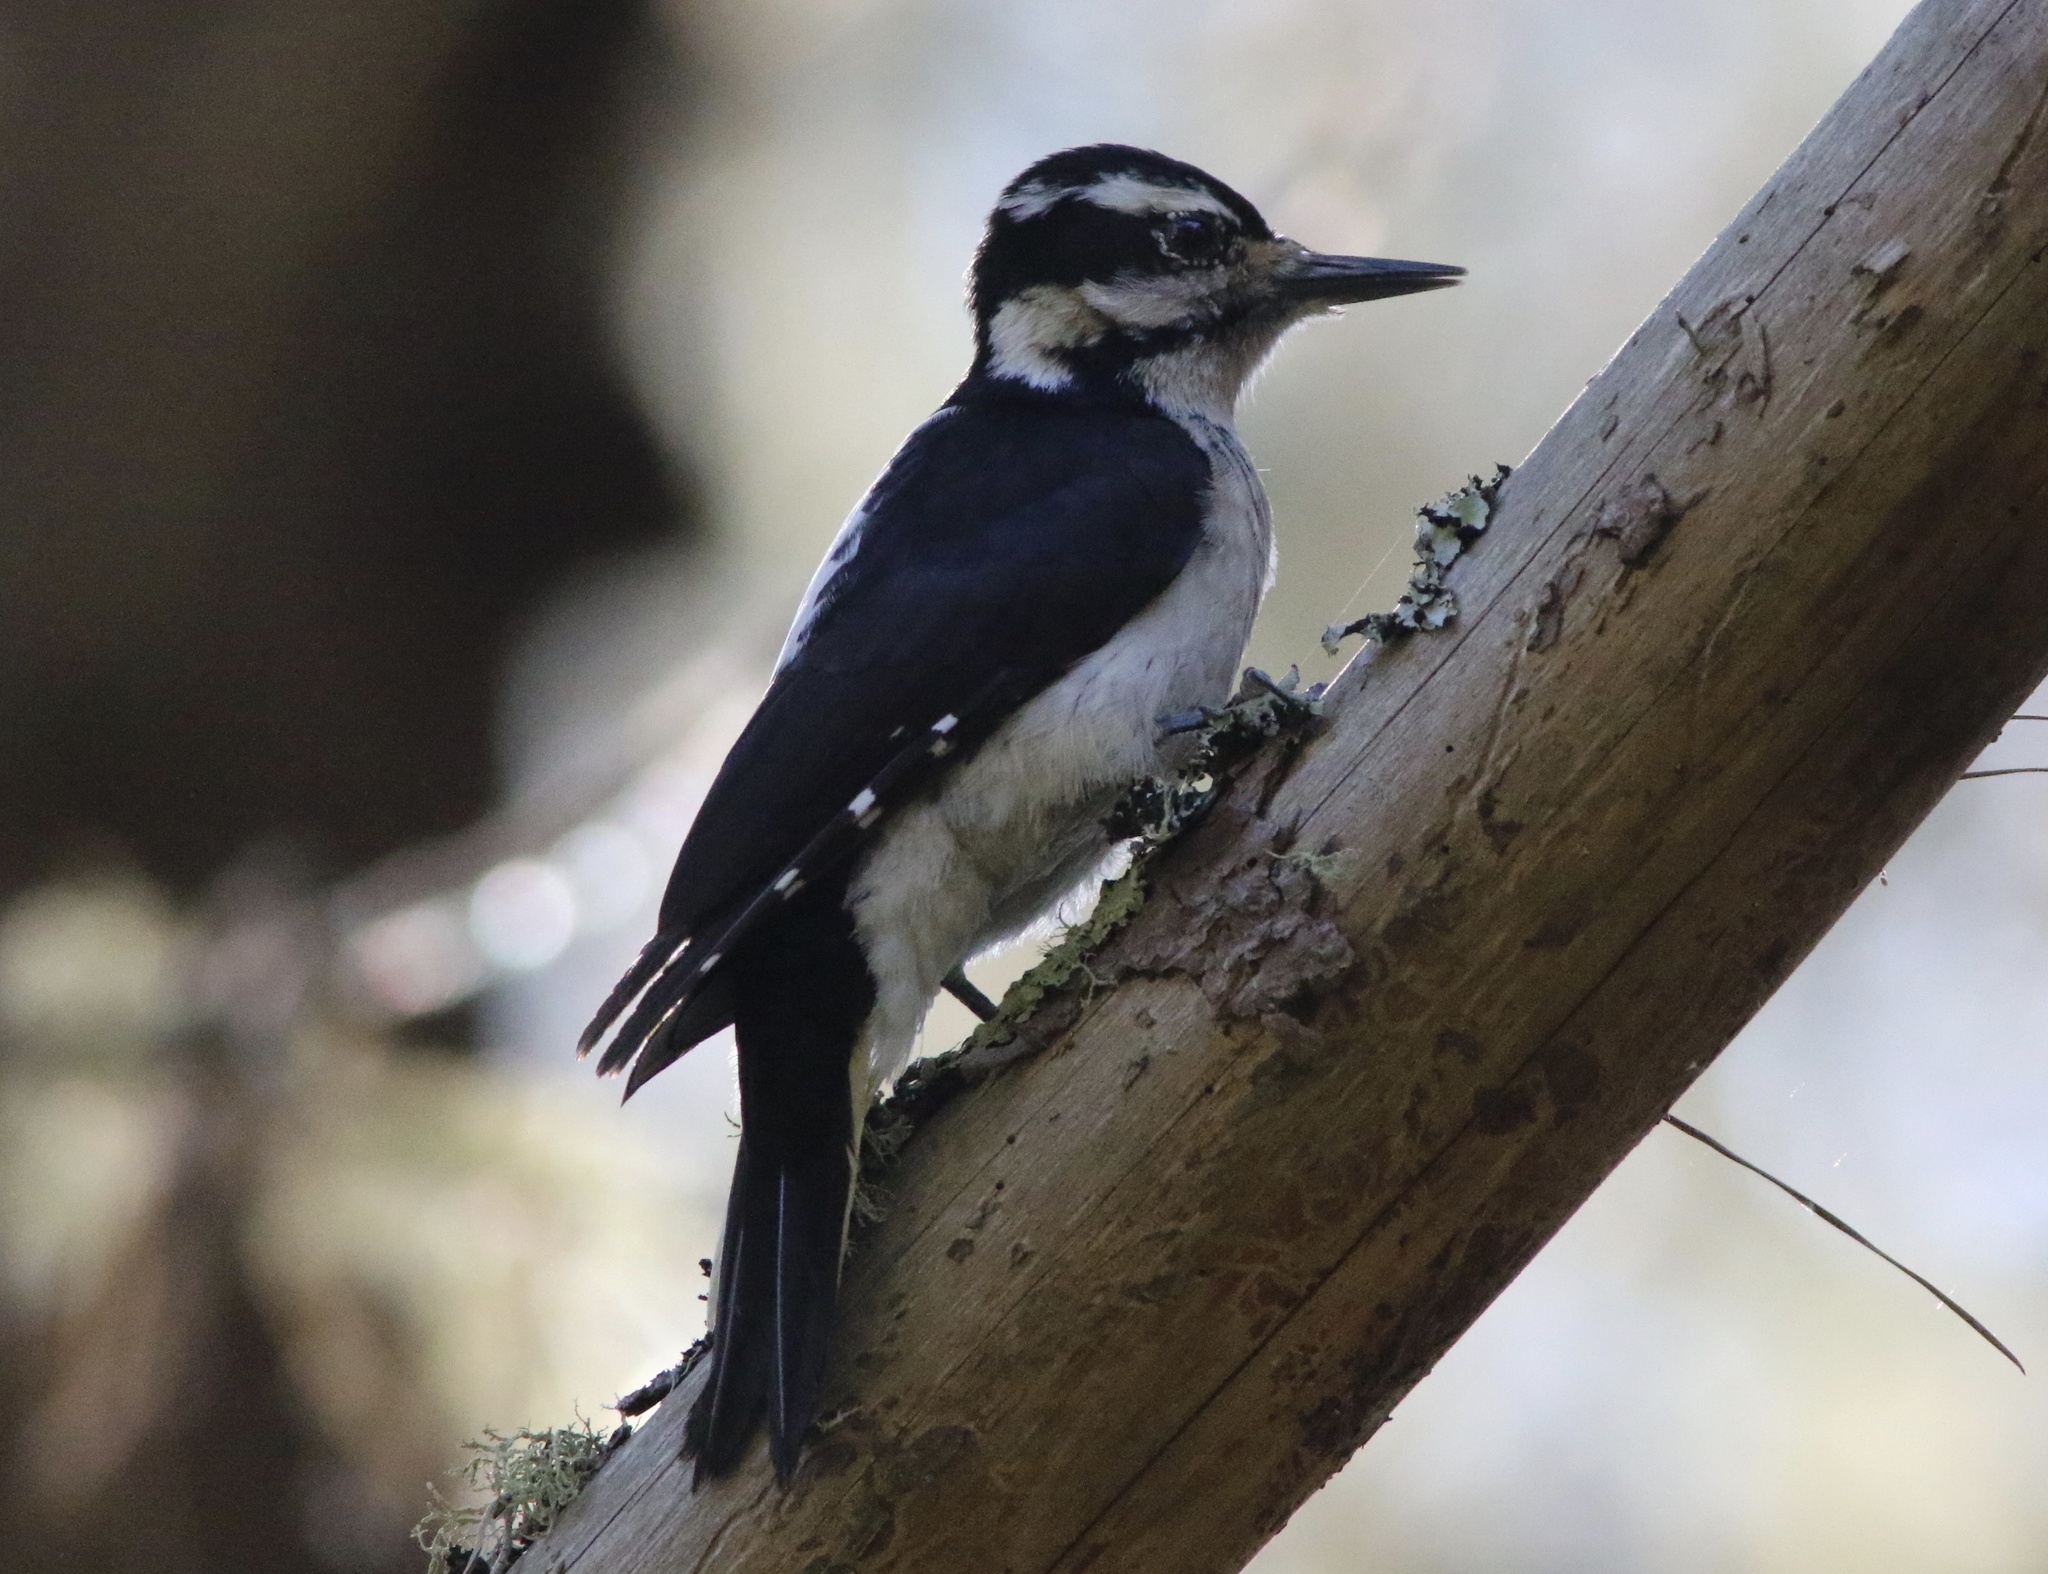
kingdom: Animalia
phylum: Chordata
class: Aves
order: Piciformes
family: Picidae
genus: Leuconotopicus
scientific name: Leuconotopicus villosus
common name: Hairy woodpecker
